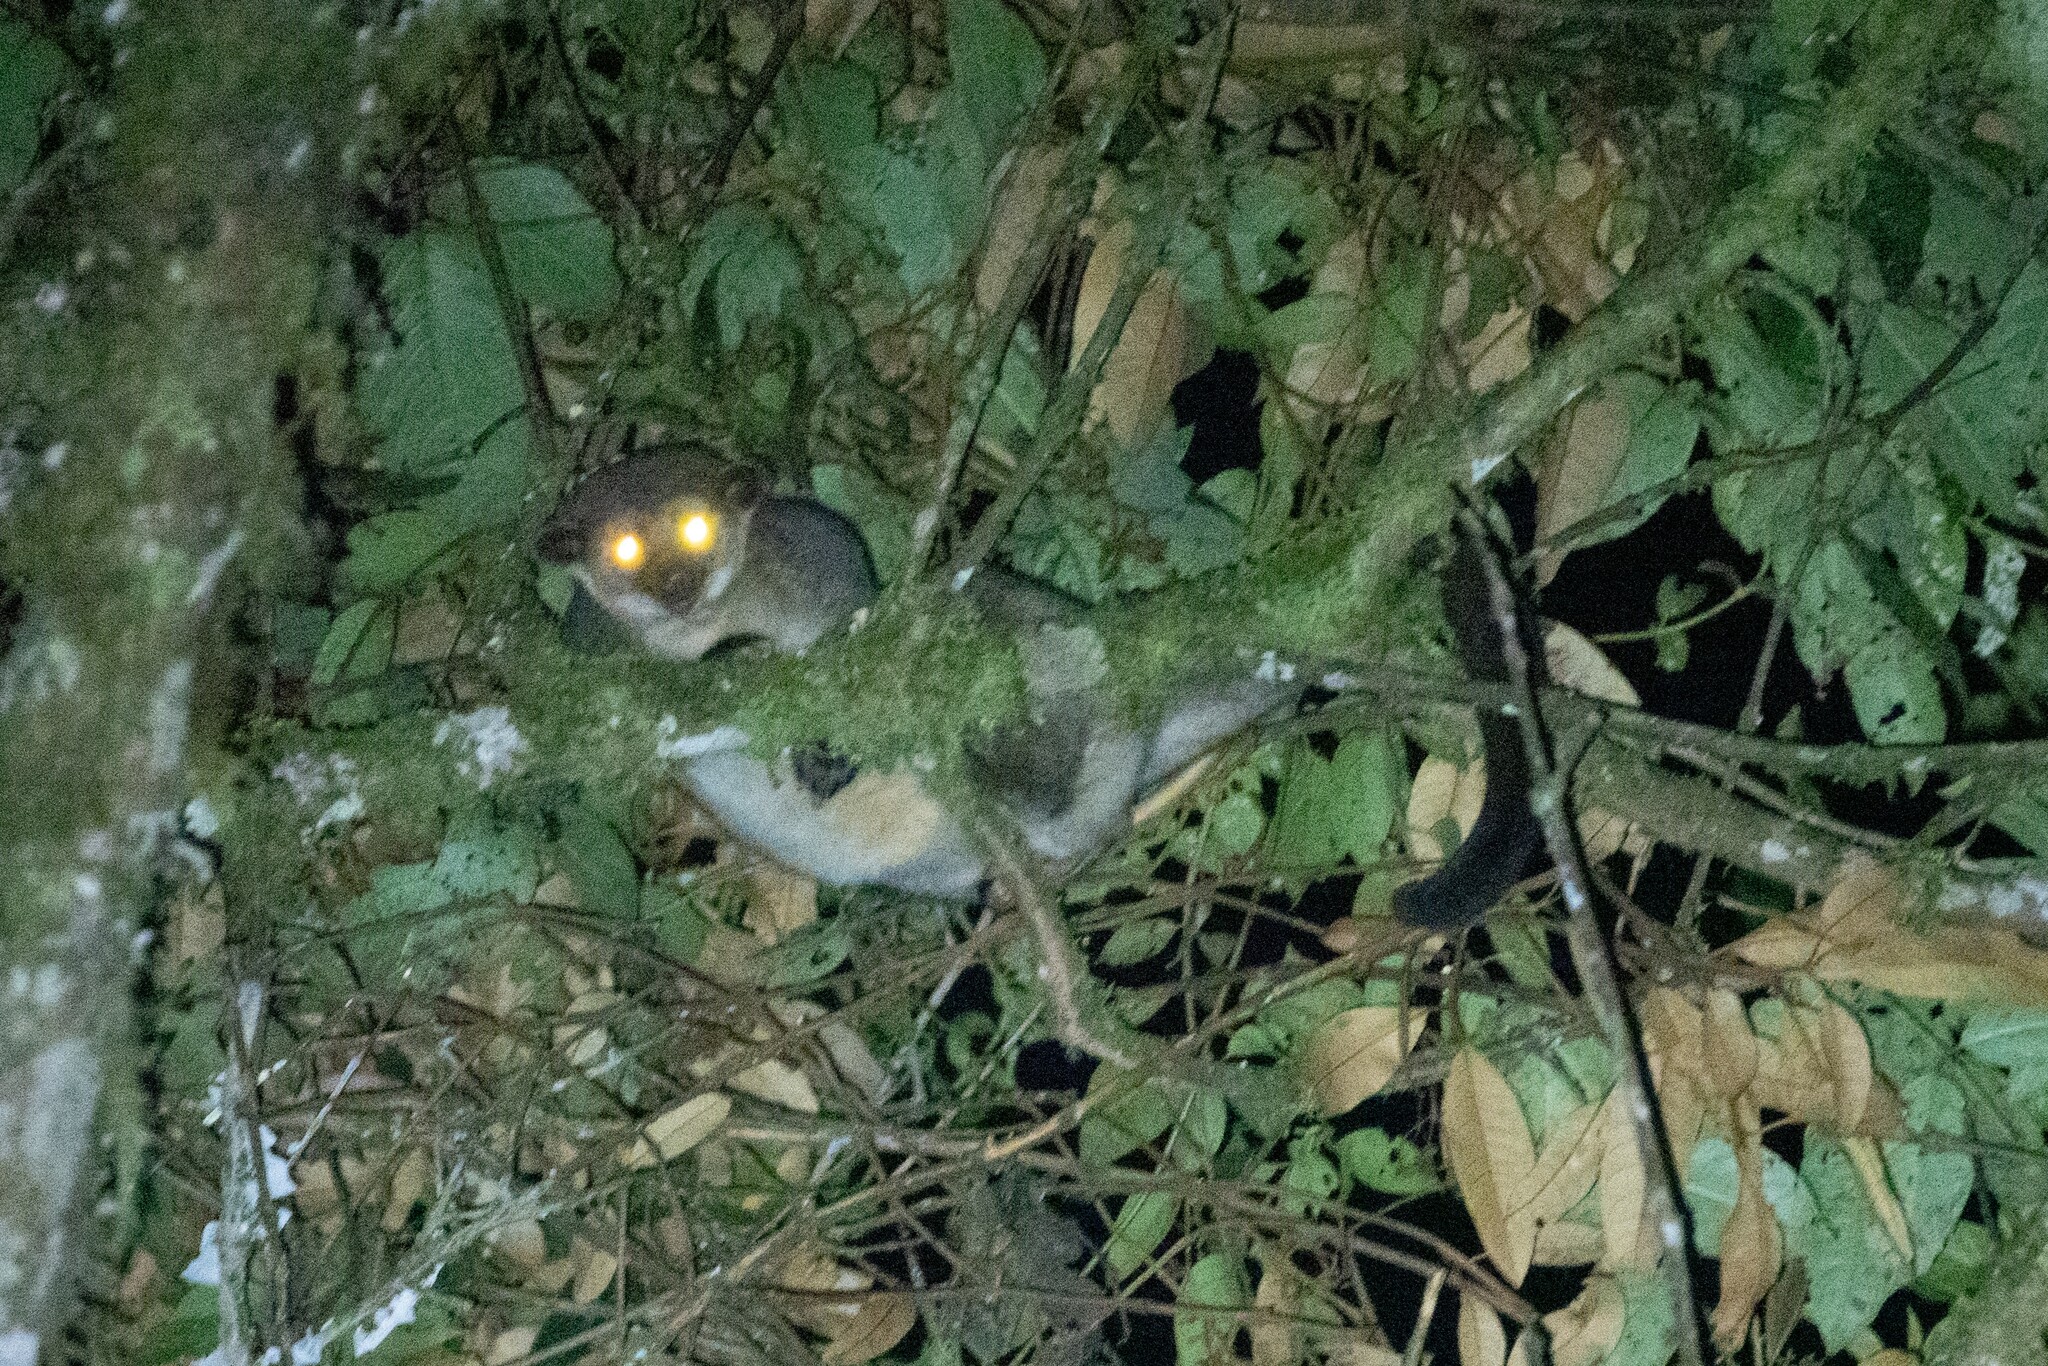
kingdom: Animalia
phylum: Chordata
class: Mammalia
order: Carnivora
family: Procyonidae
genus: Potos
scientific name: Potos flavus
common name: Kinkajou
